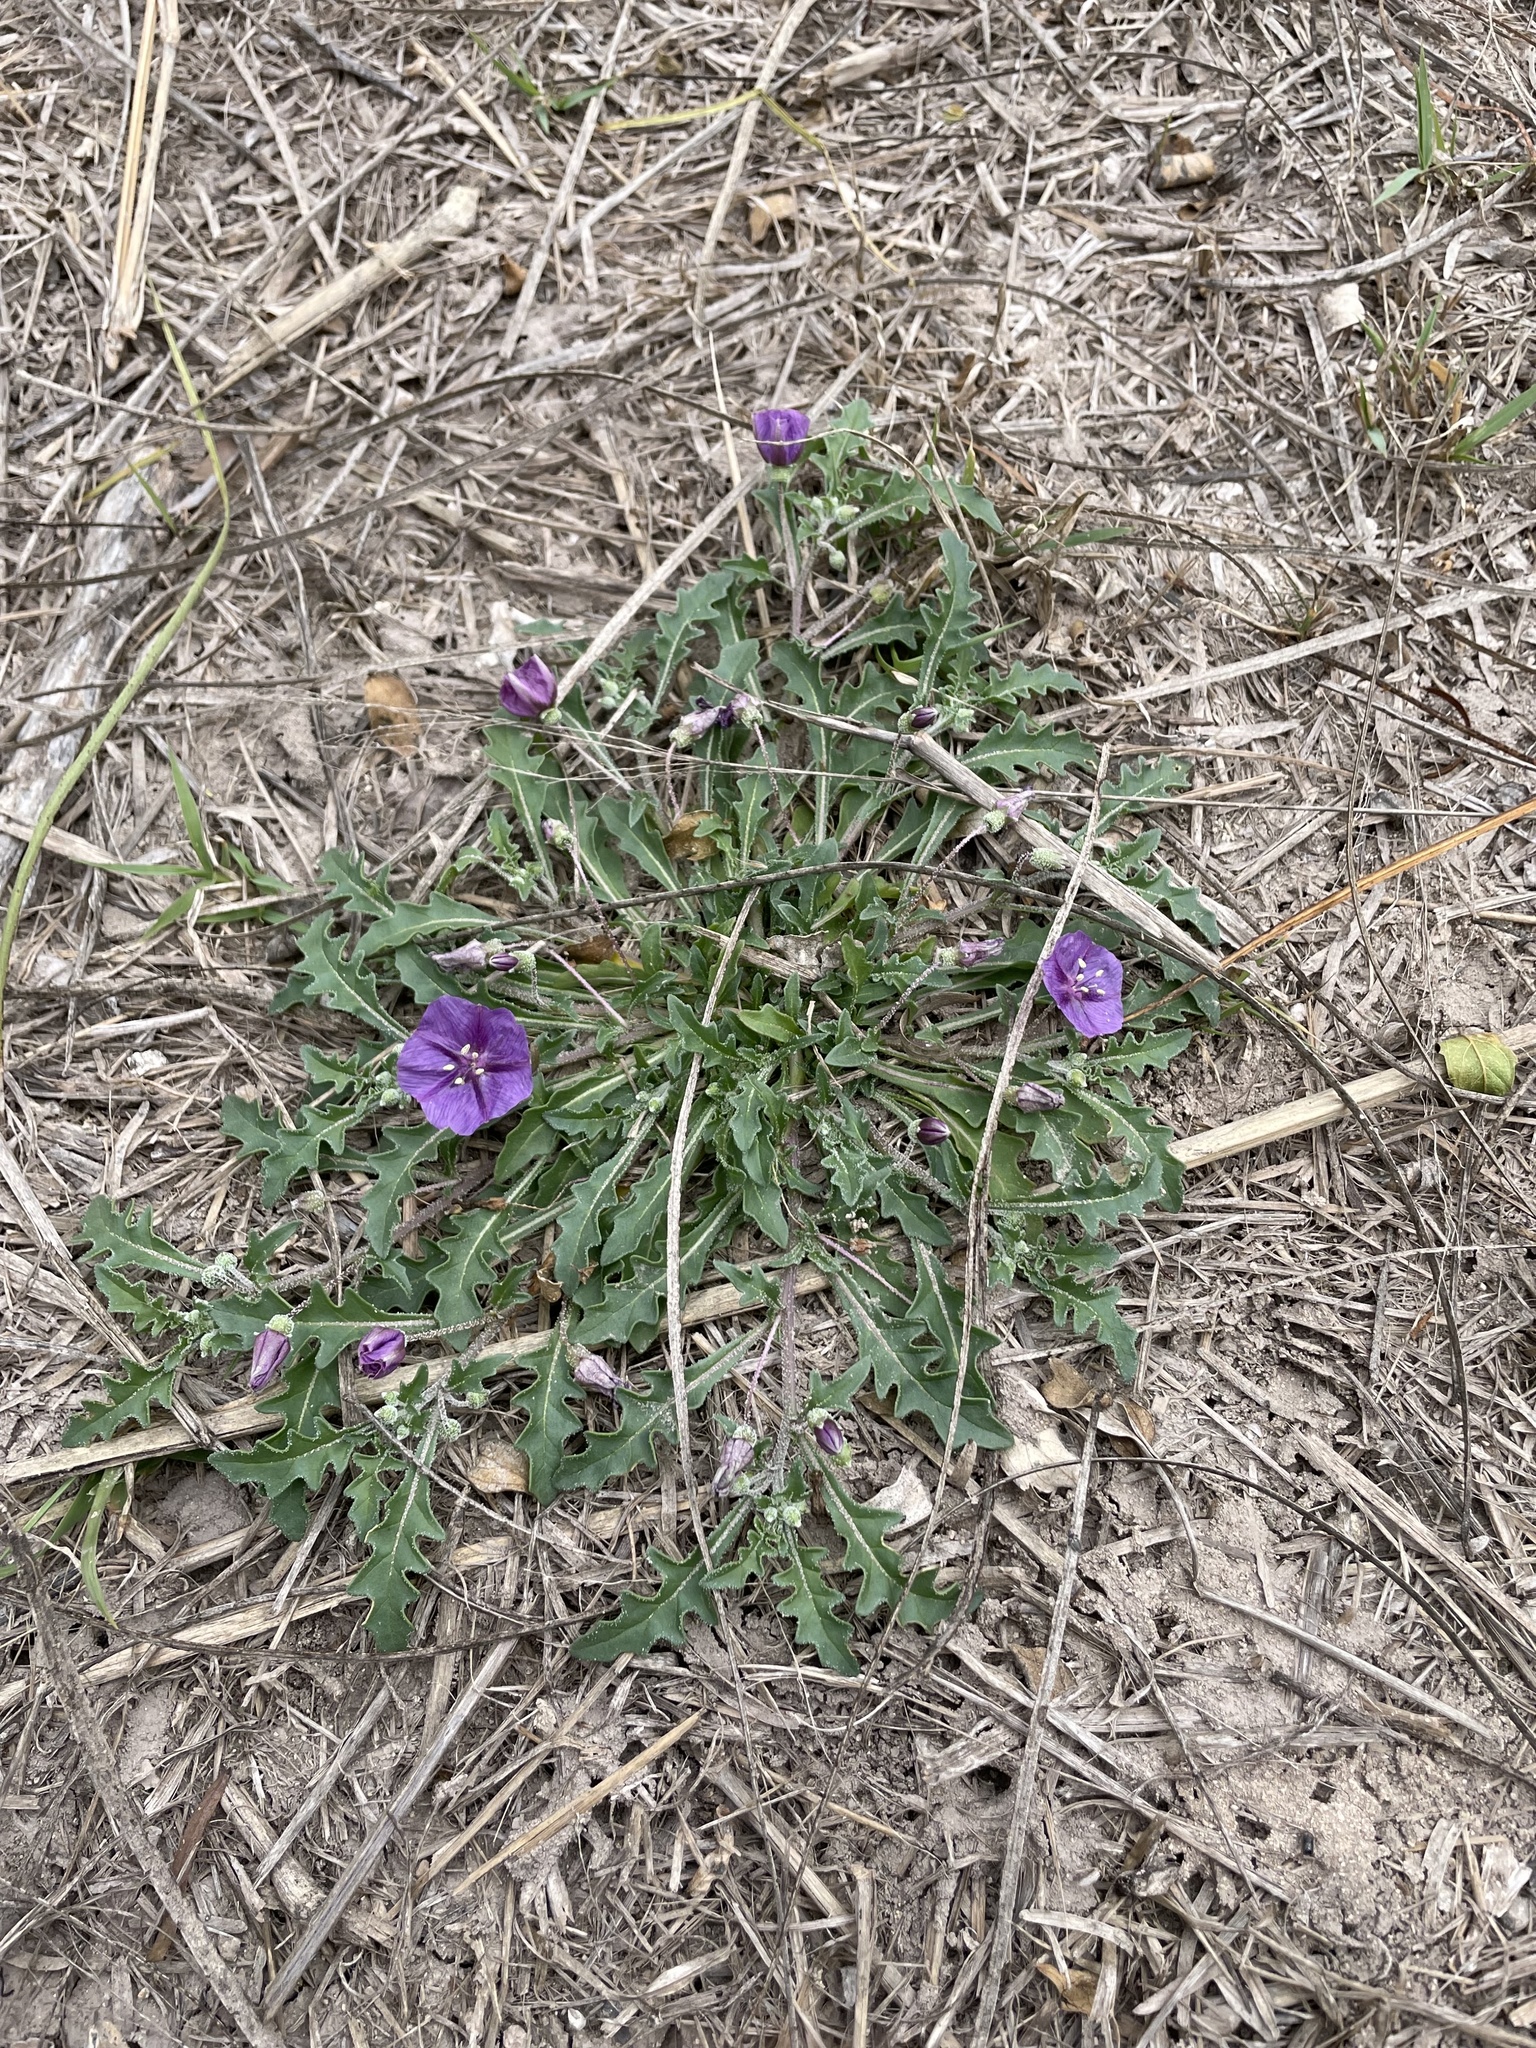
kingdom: Plantae
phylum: Tracheophyta
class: Magnoliopsida
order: Solanales
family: Solanaceae
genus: Quincula
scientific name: Quincula lobata
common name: Purple-ground-cherry
